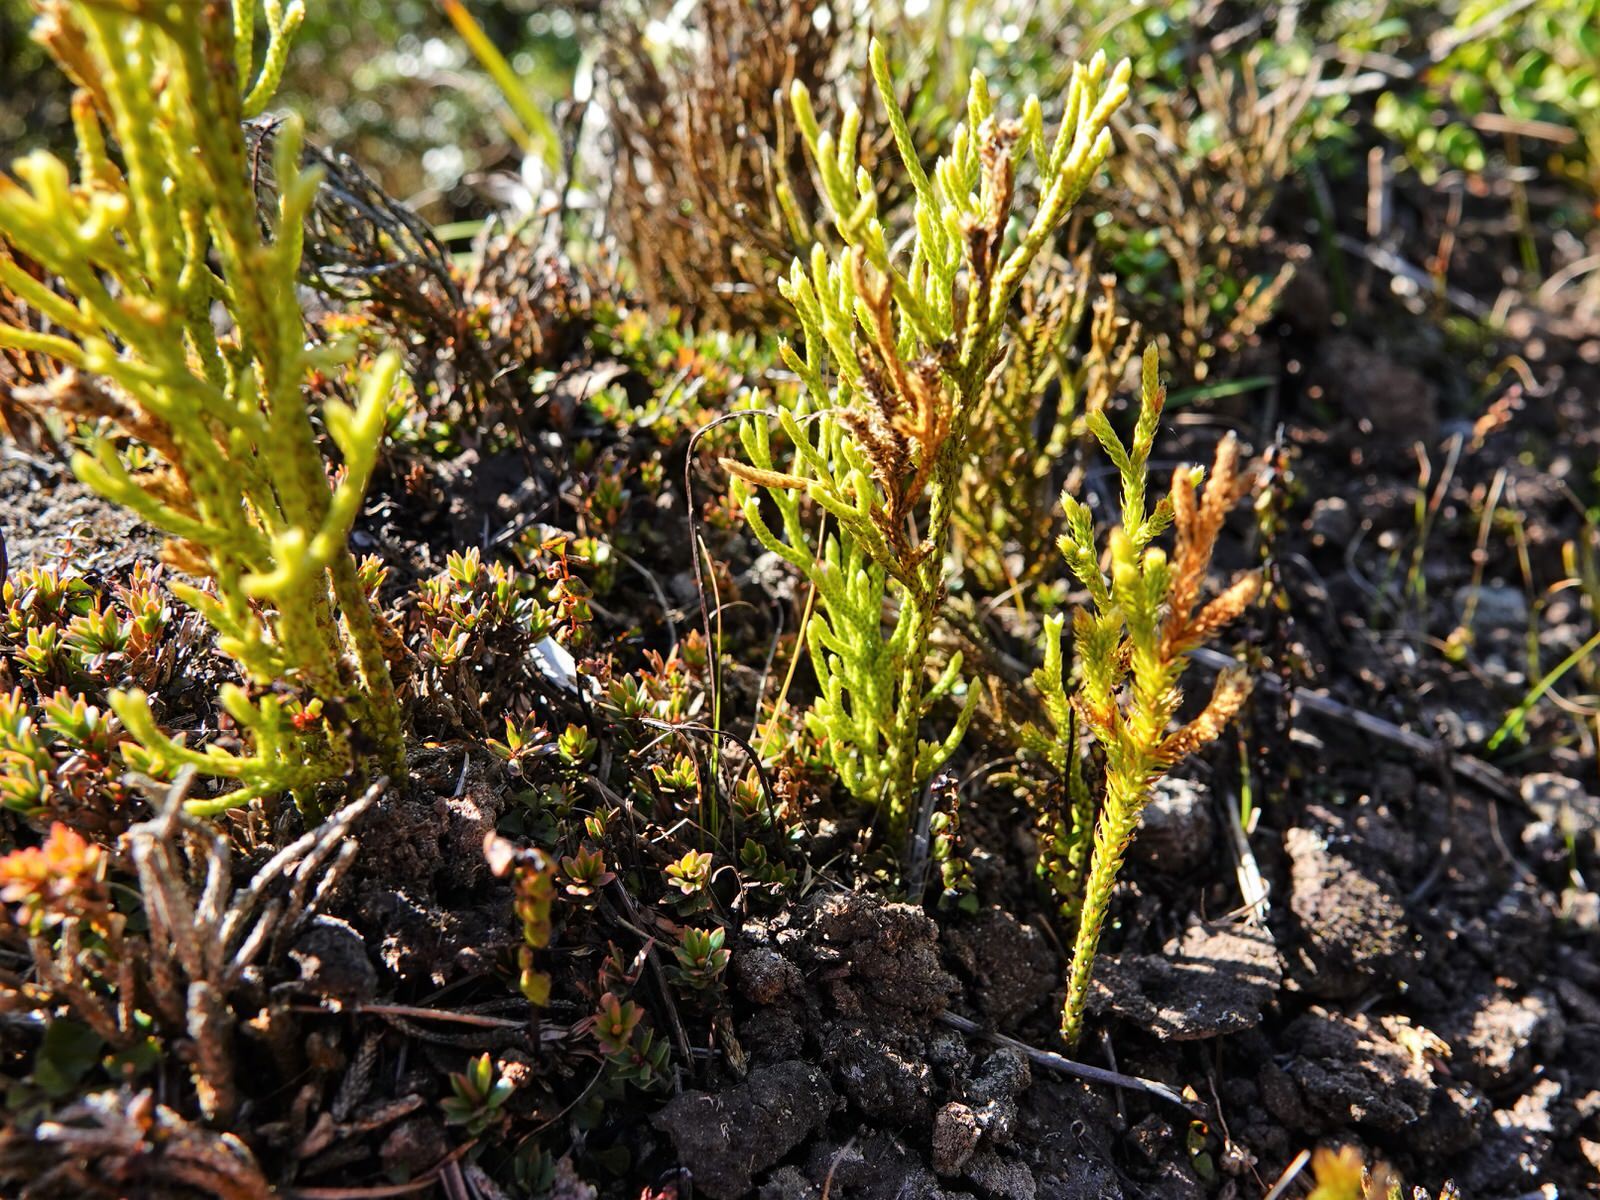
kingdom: Plantae
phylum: Tracheophyta
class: Lycopodiopsida
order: Lycopodiales
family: Lycopodiaceae
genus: Pseudolycopodium
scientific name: Pseudolycopodium densum
